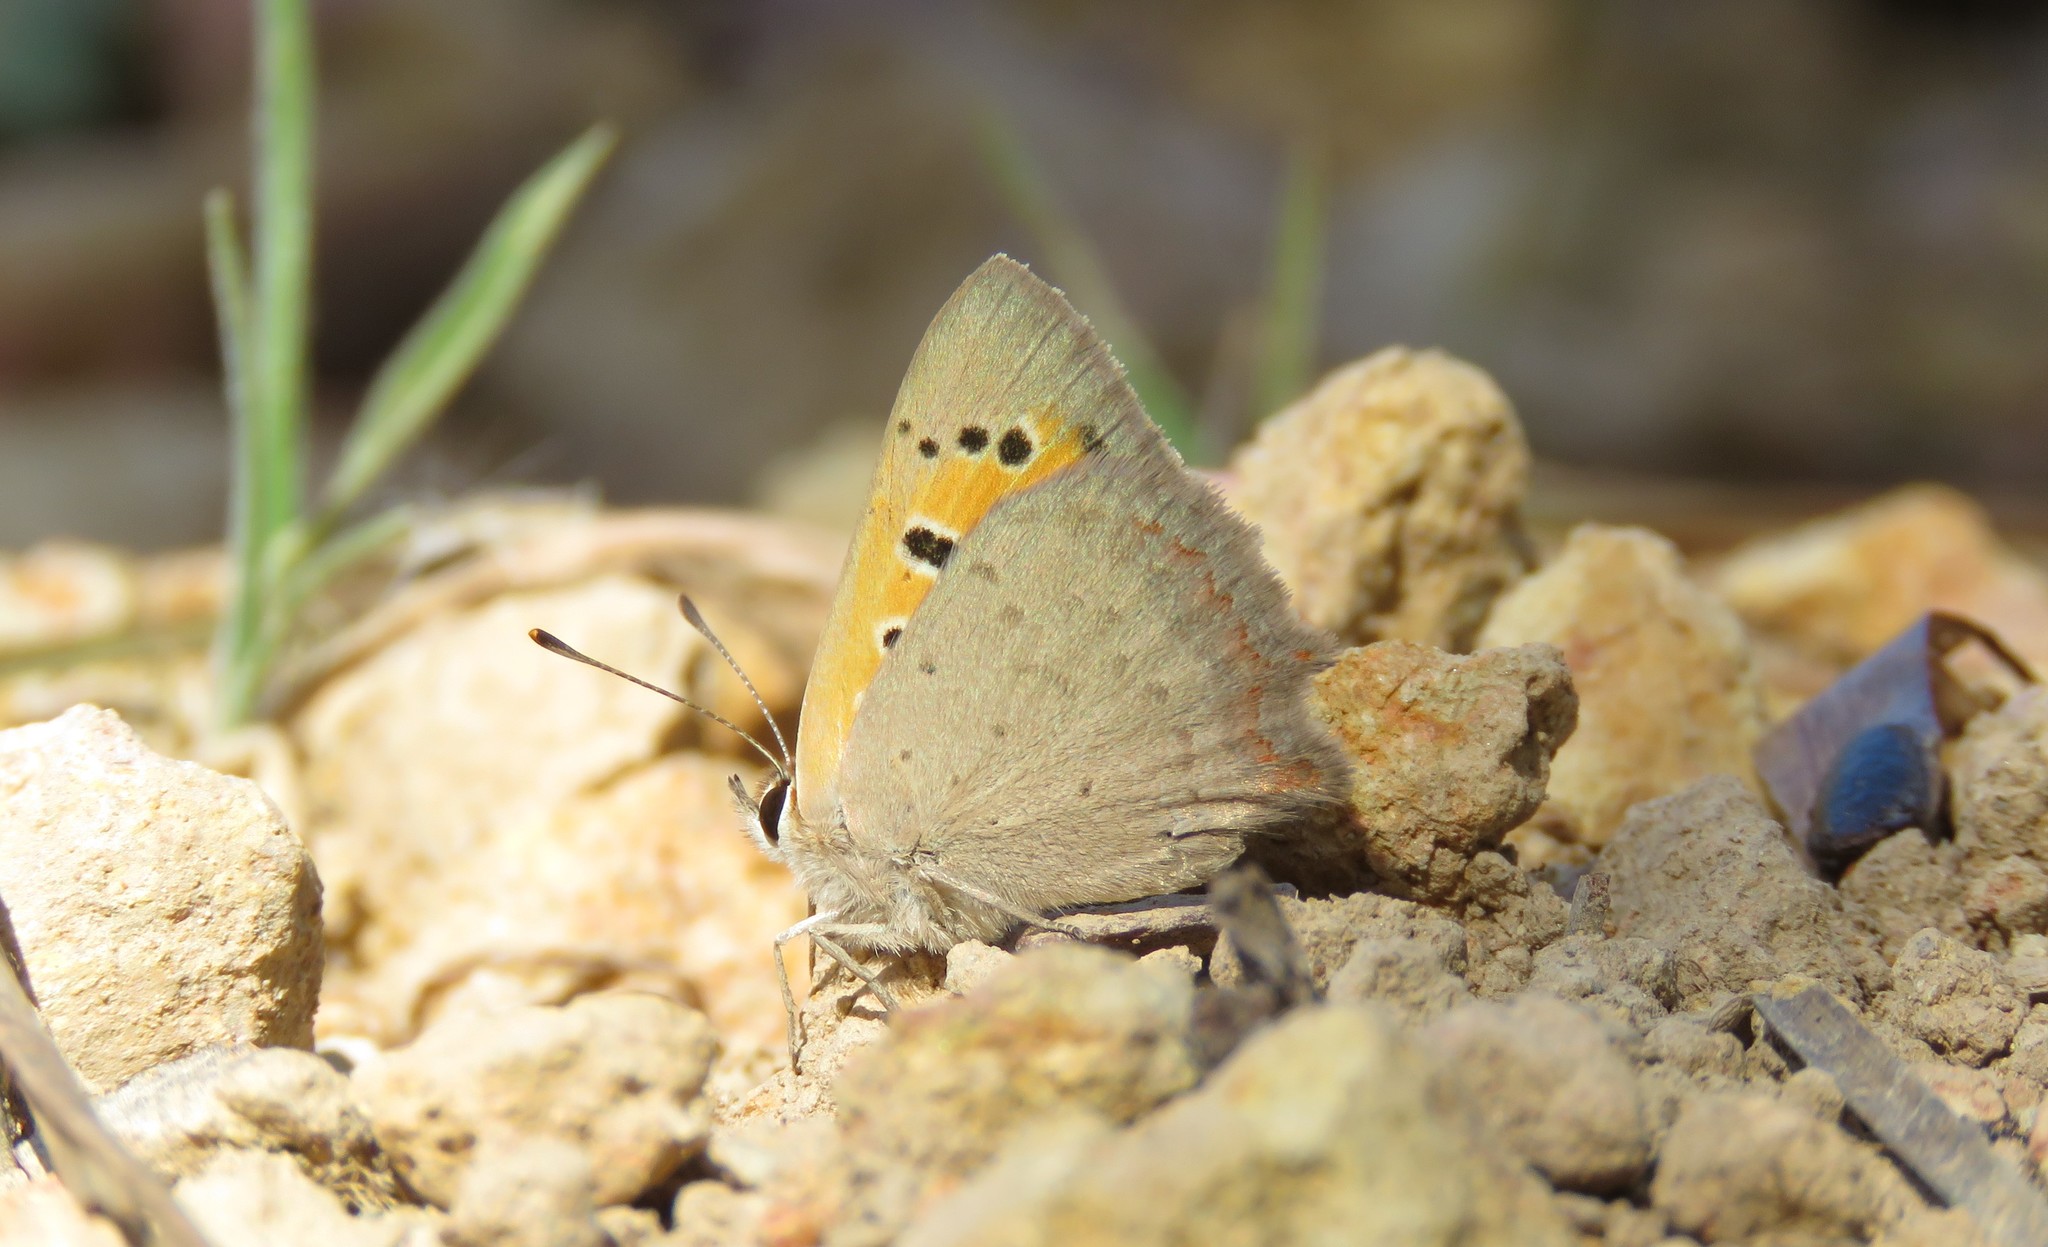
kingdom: Animalia
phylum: Arthropoda
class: Insecta
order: Lepidoptera
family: Lycaenidae
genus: Lycaena
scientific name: Lycaena phlaeas
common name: Small copper
